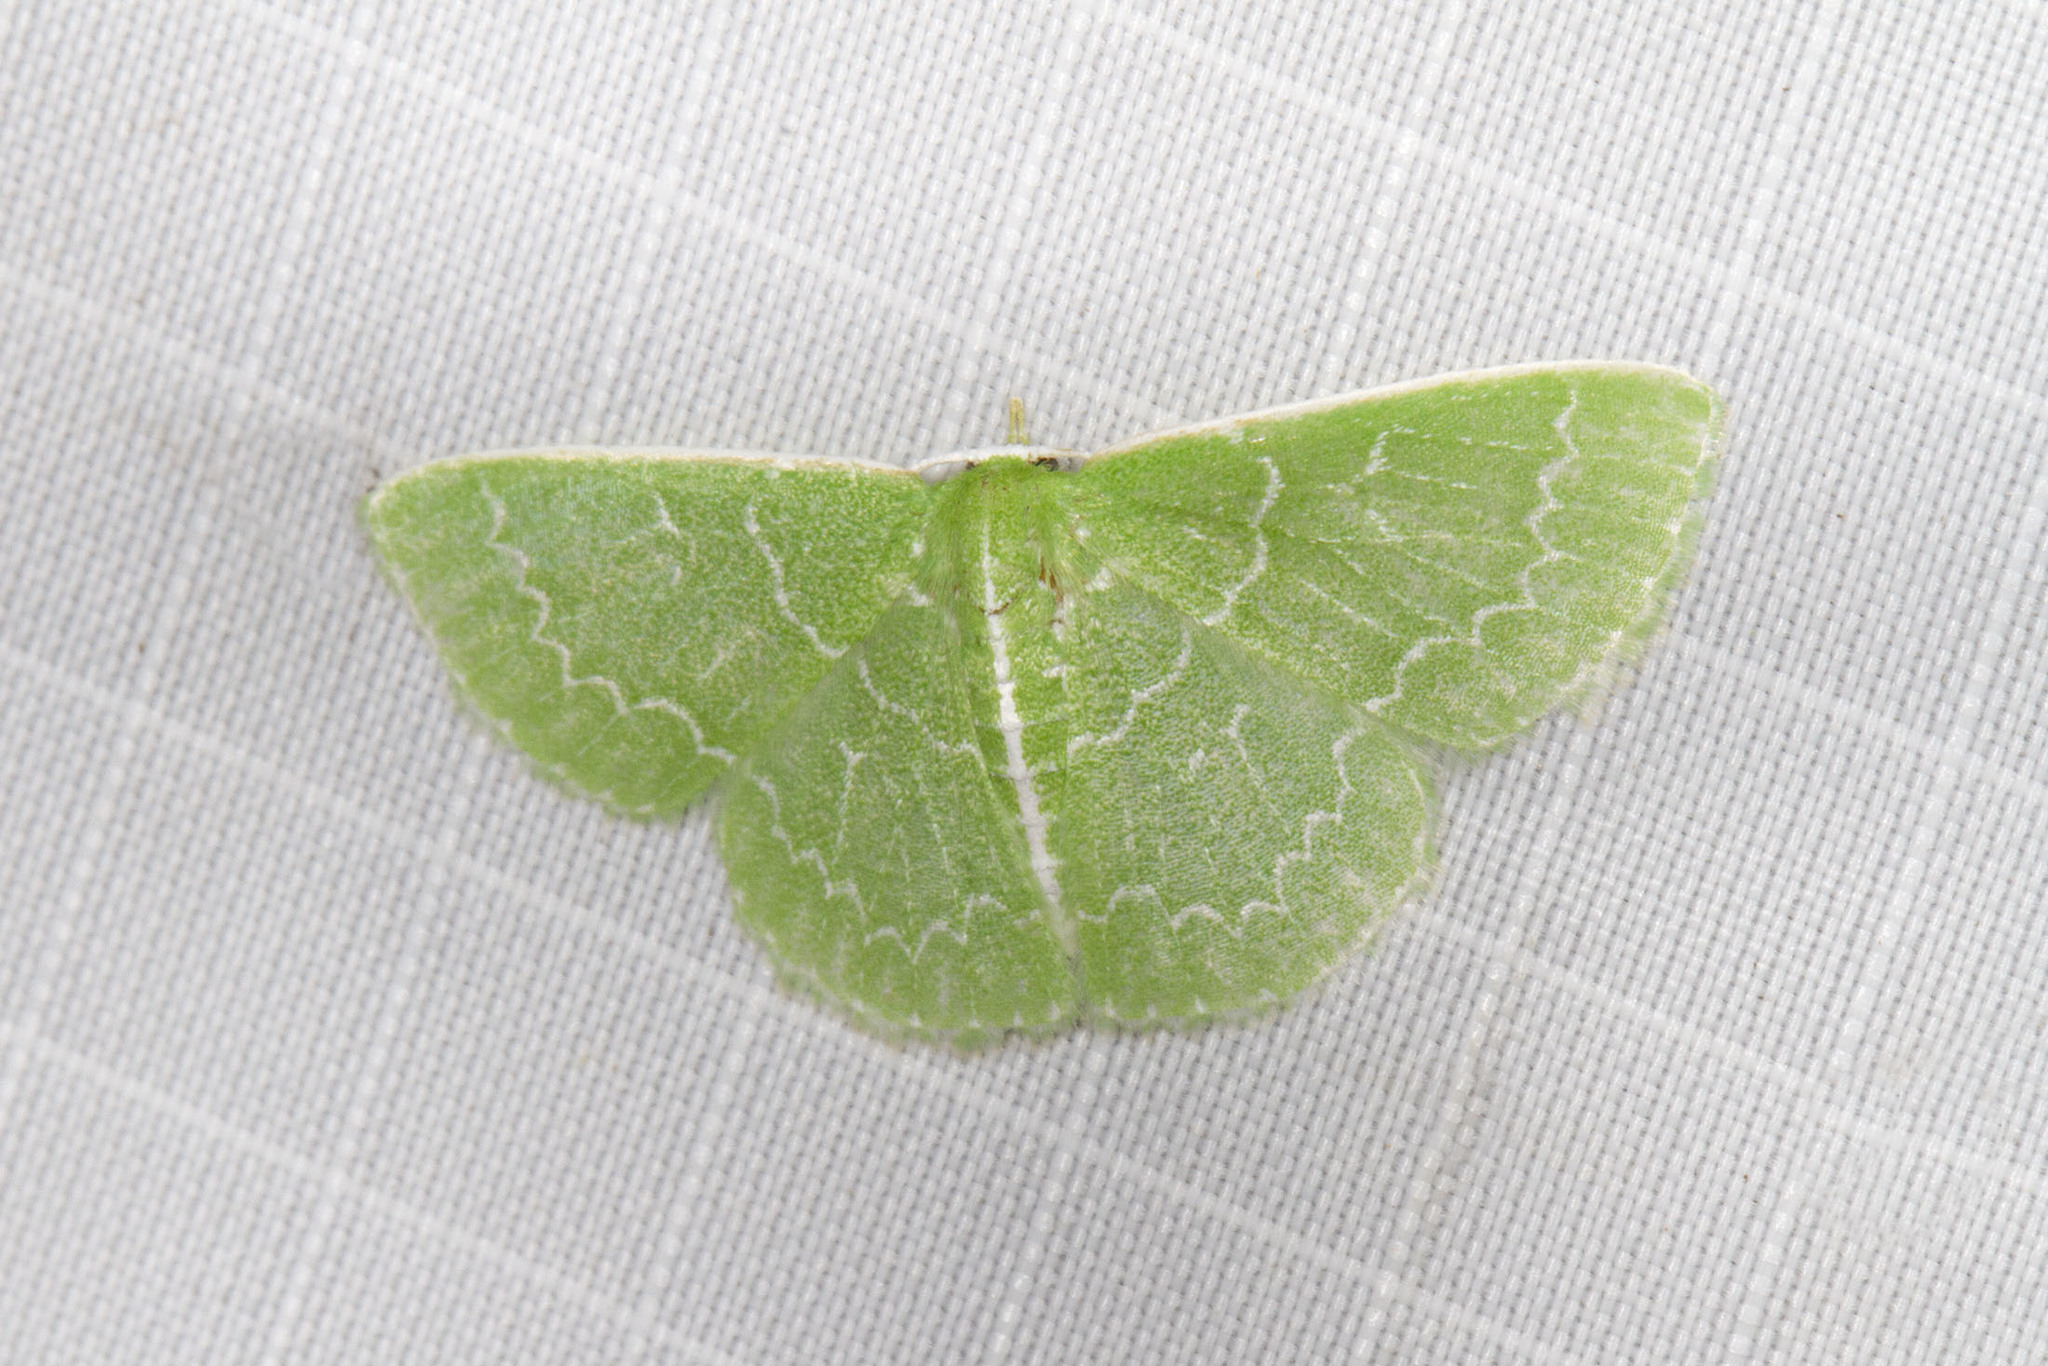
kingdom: Animalia
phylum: Arthropoda
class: Insecta
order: Lepidoptera
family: Geometridae
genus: Synchlora
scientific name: Synchlora frondaria
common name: Southern emerald
